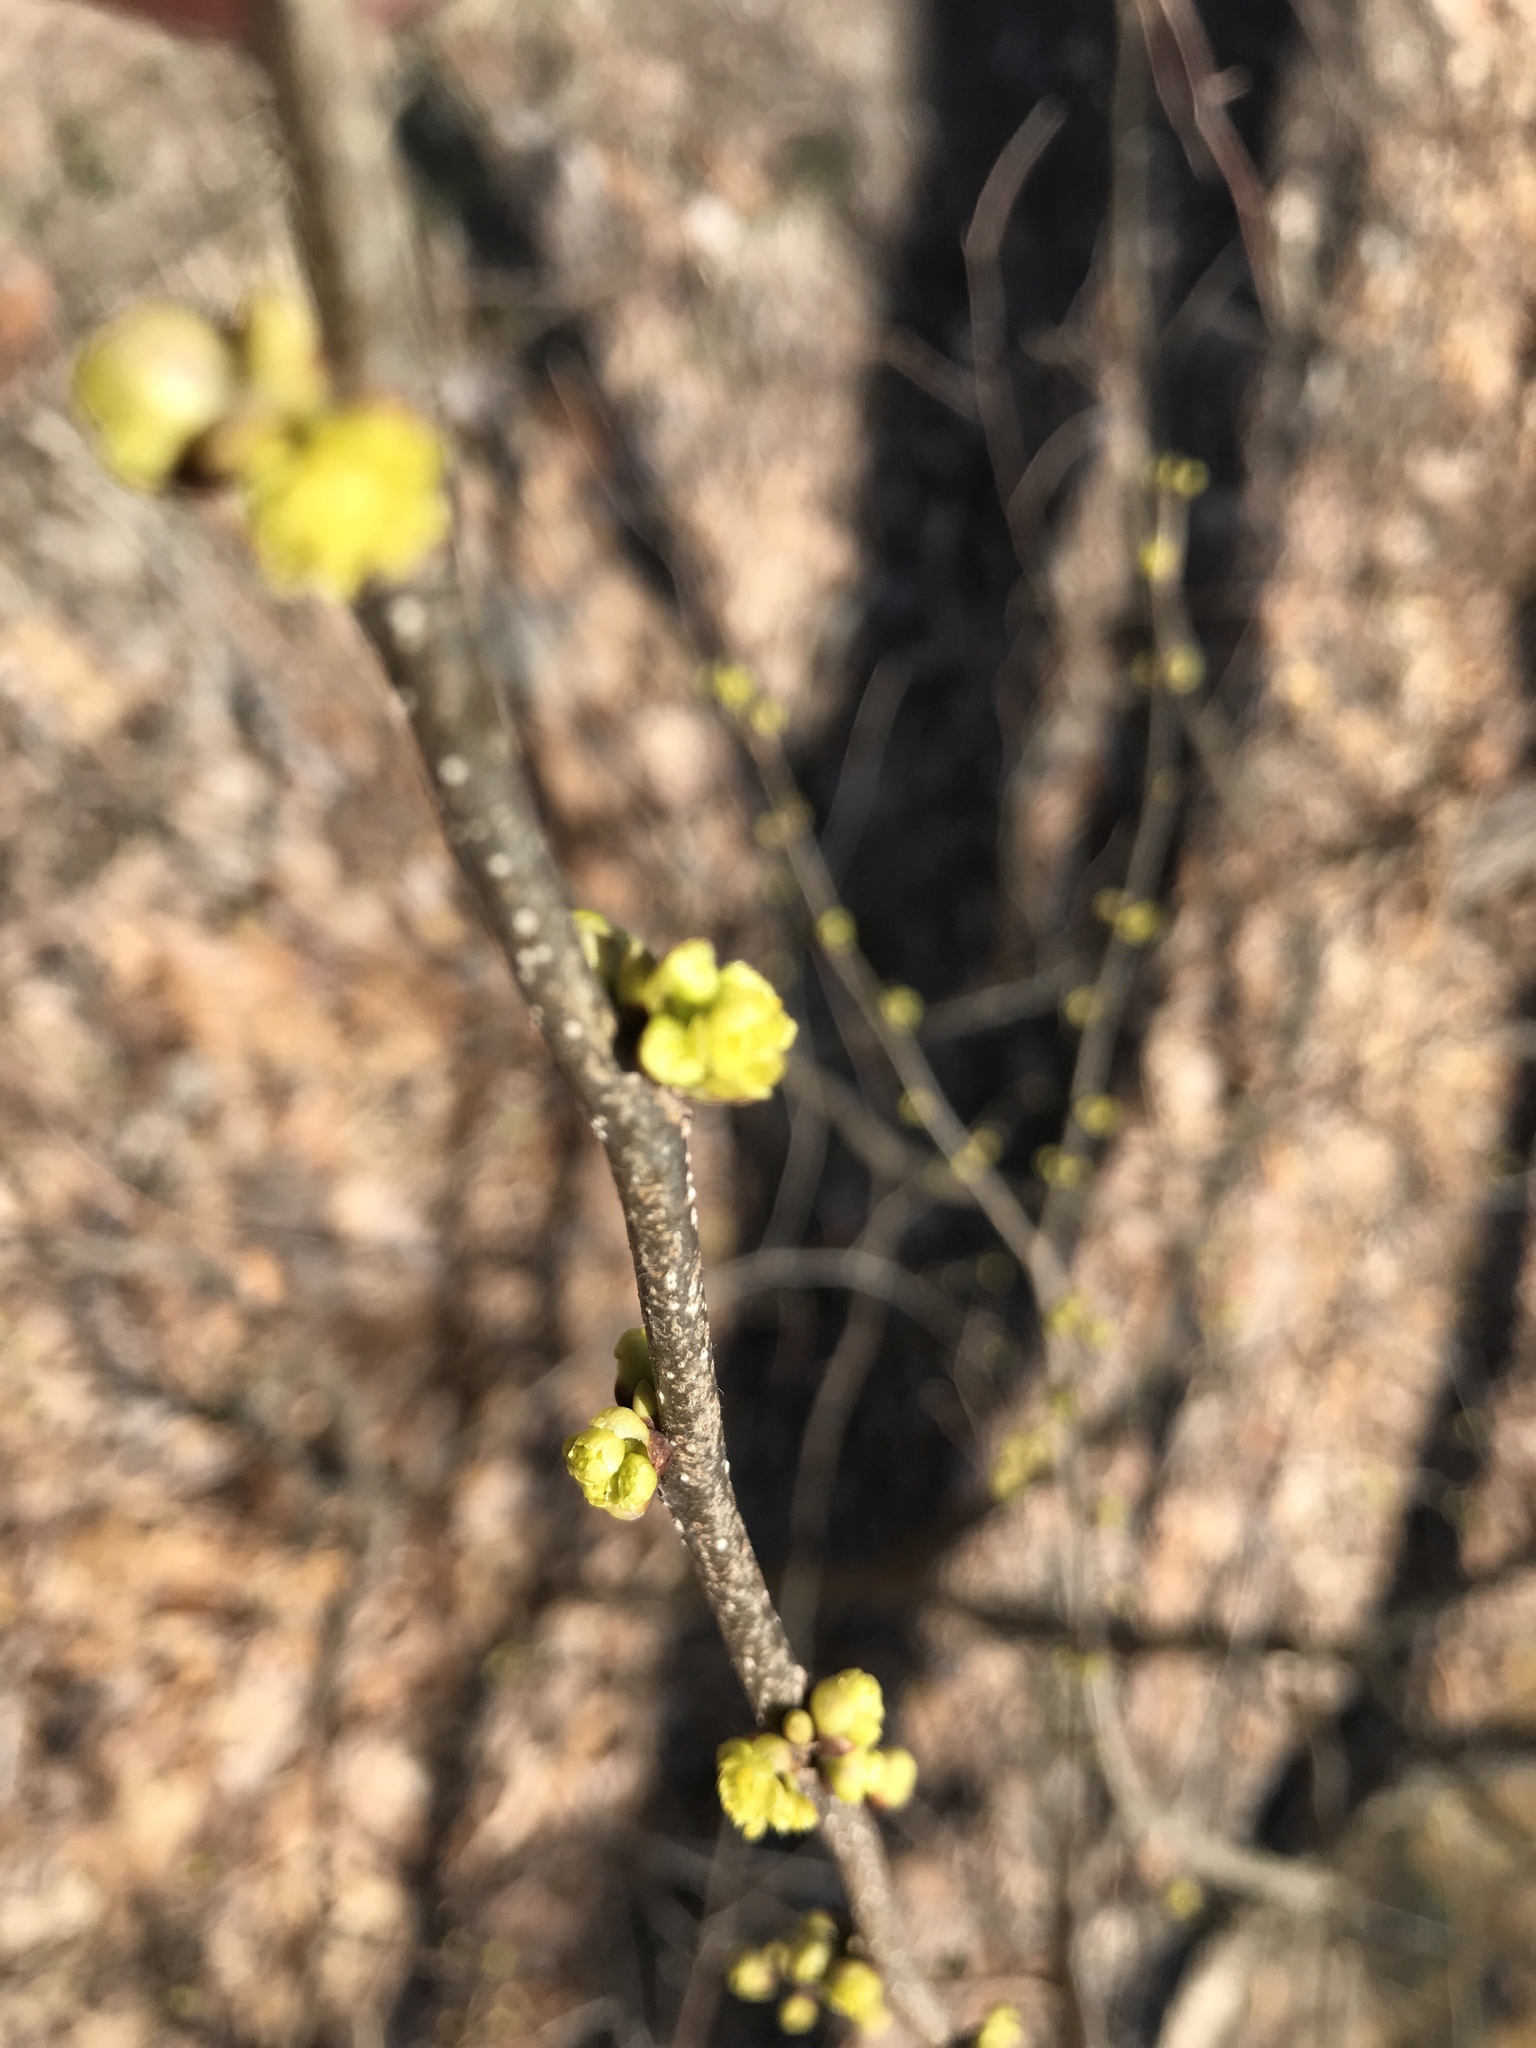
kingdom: Plantae
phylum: Tracheophyta
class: Magnoliopsida
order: Laurales
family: Lauraceae
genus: Lindera
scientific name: Lindera benzoin
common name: Spicebush
